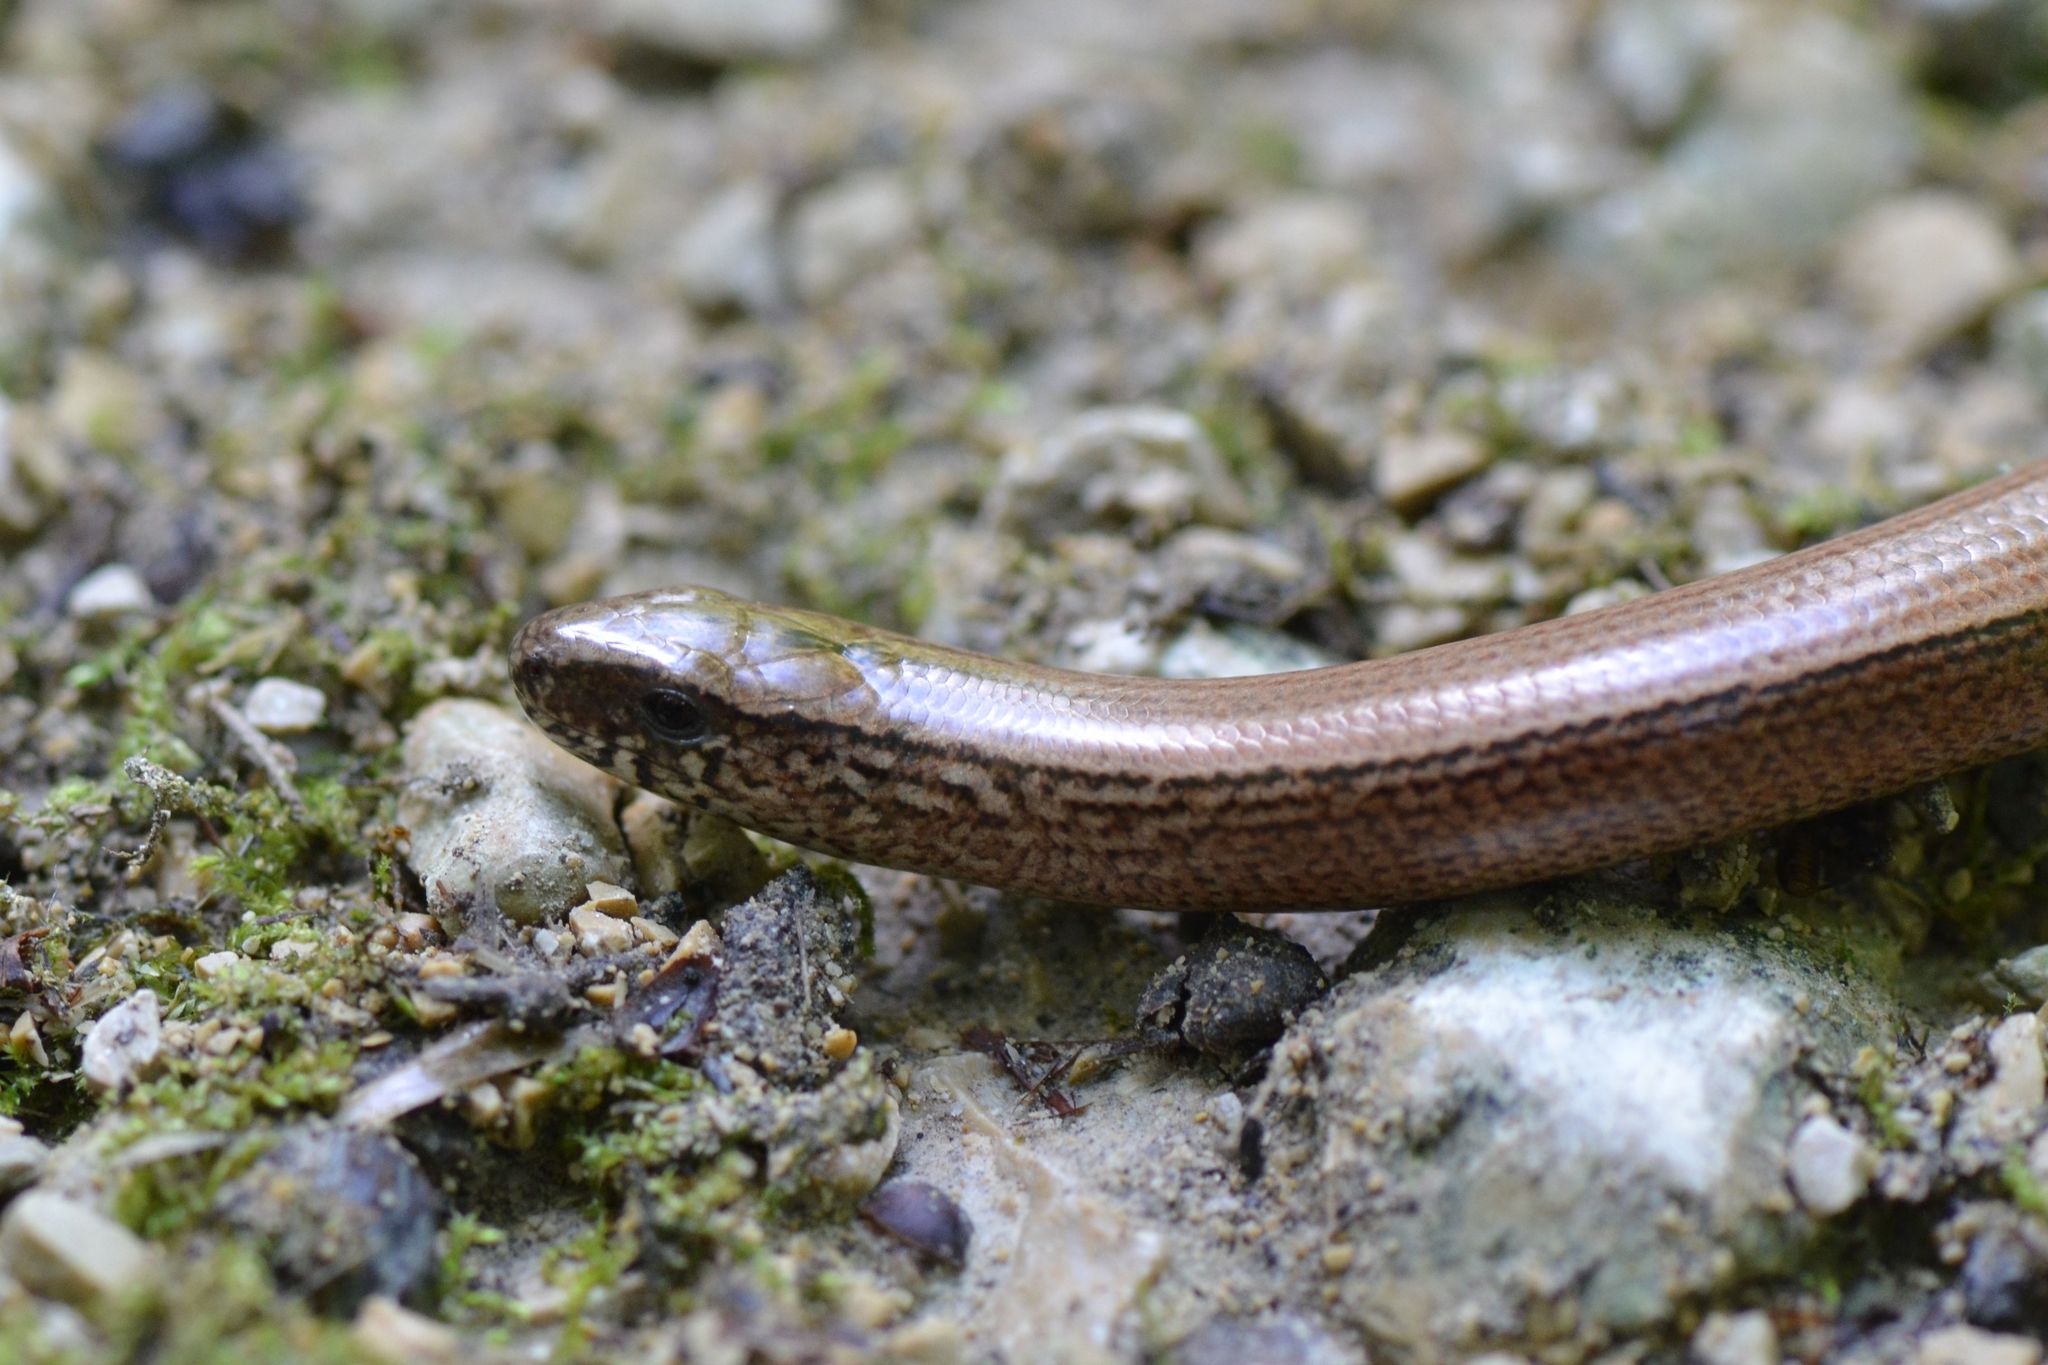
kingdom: Animalia
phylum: Chordata
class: Squamata
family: Anguidae
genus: Anguis
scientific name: Anguis fragilis
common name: Slow worm
